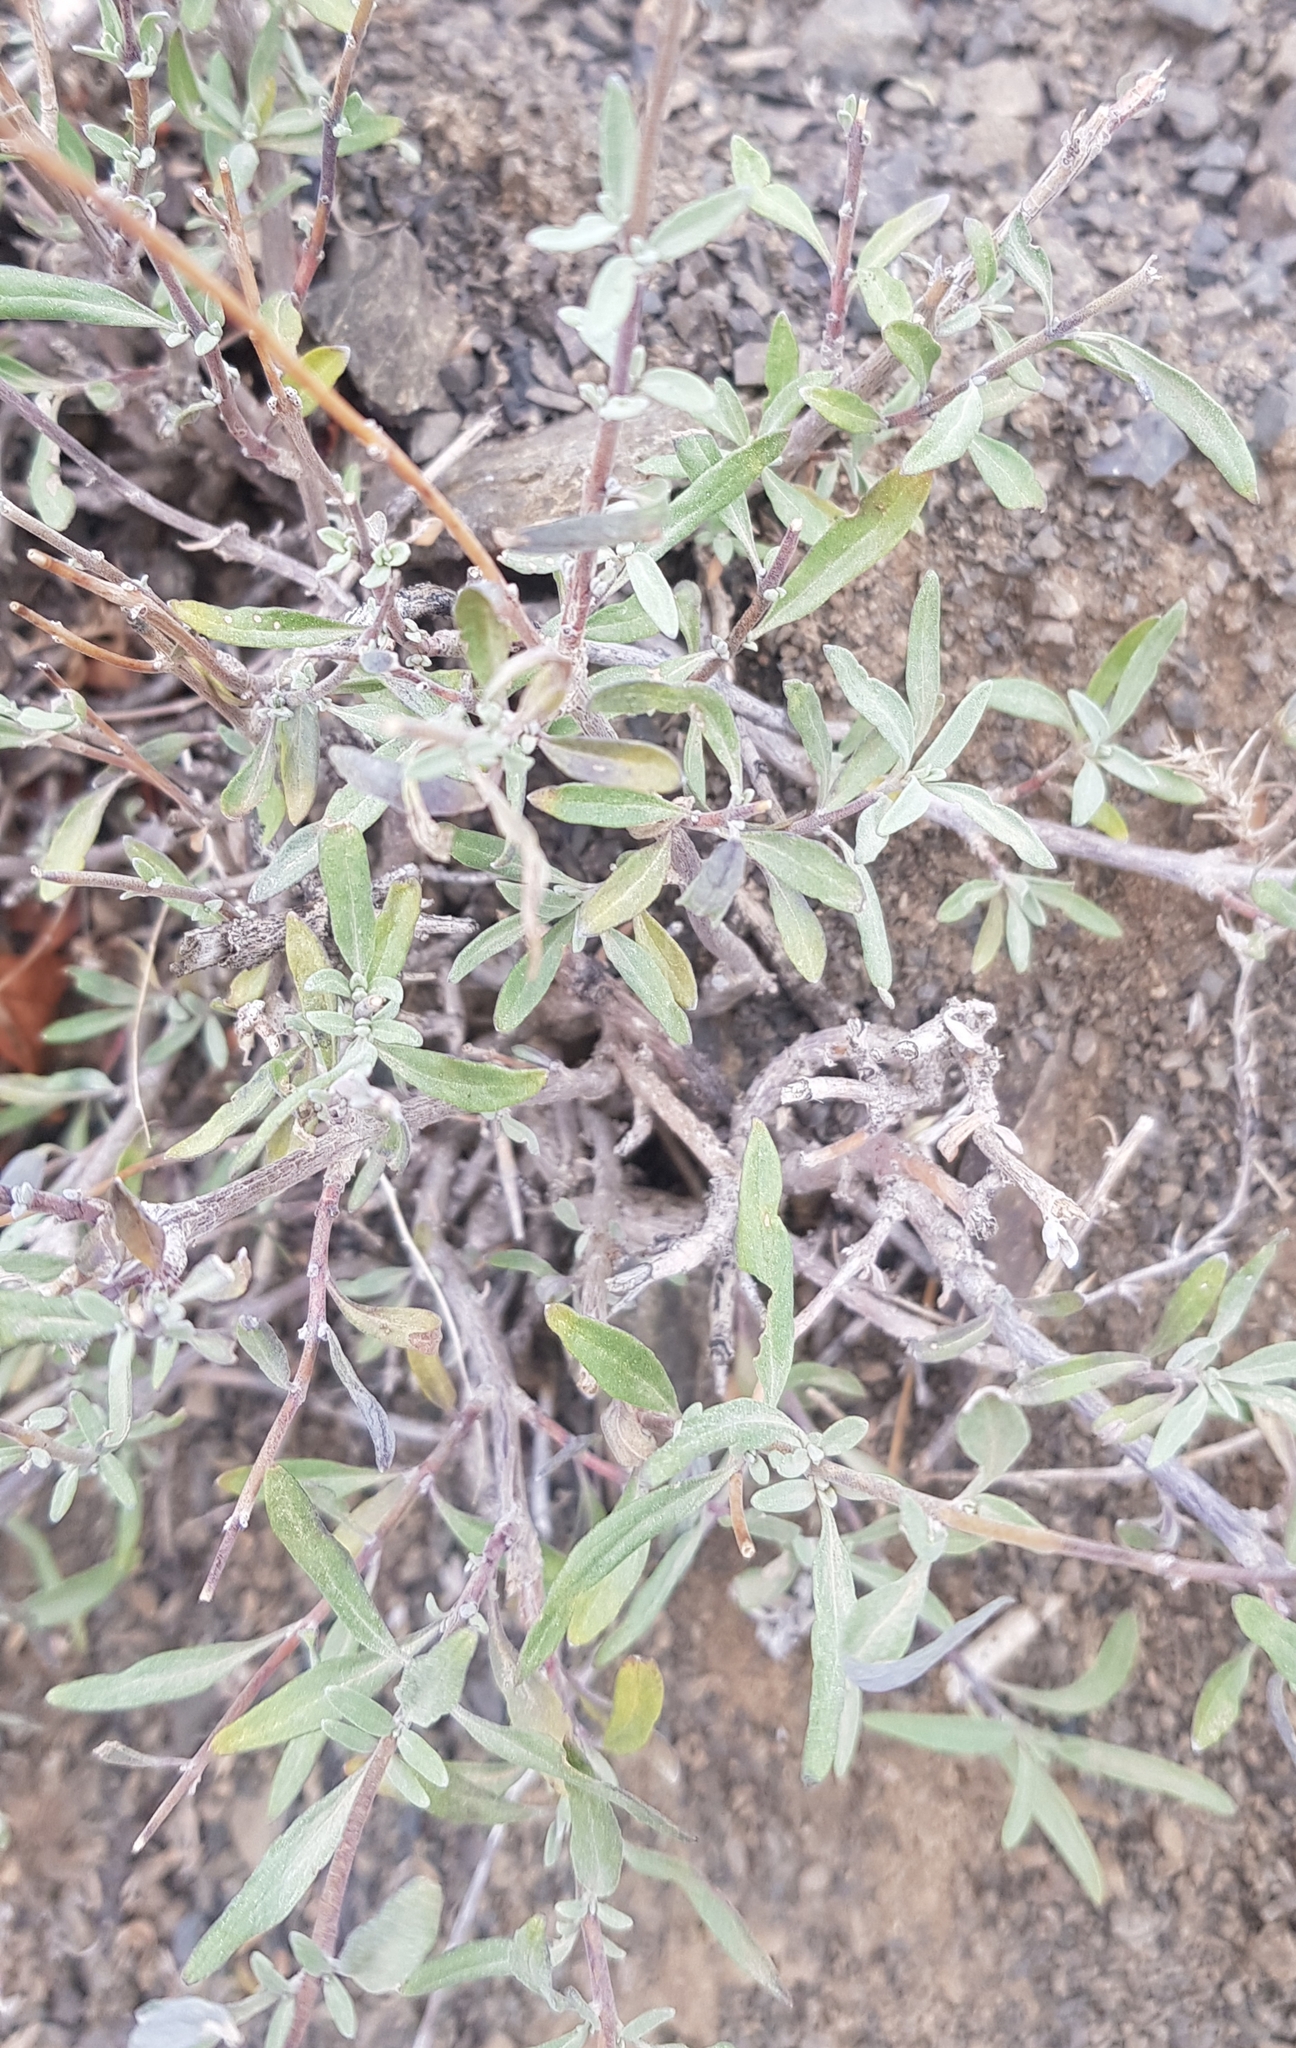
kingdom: Plantae
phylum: Tracheophyta
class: Magnoliopsida
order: Lamiales
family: Lamiaceae
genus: Caryopteris
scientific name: Caryopteris mongholica
